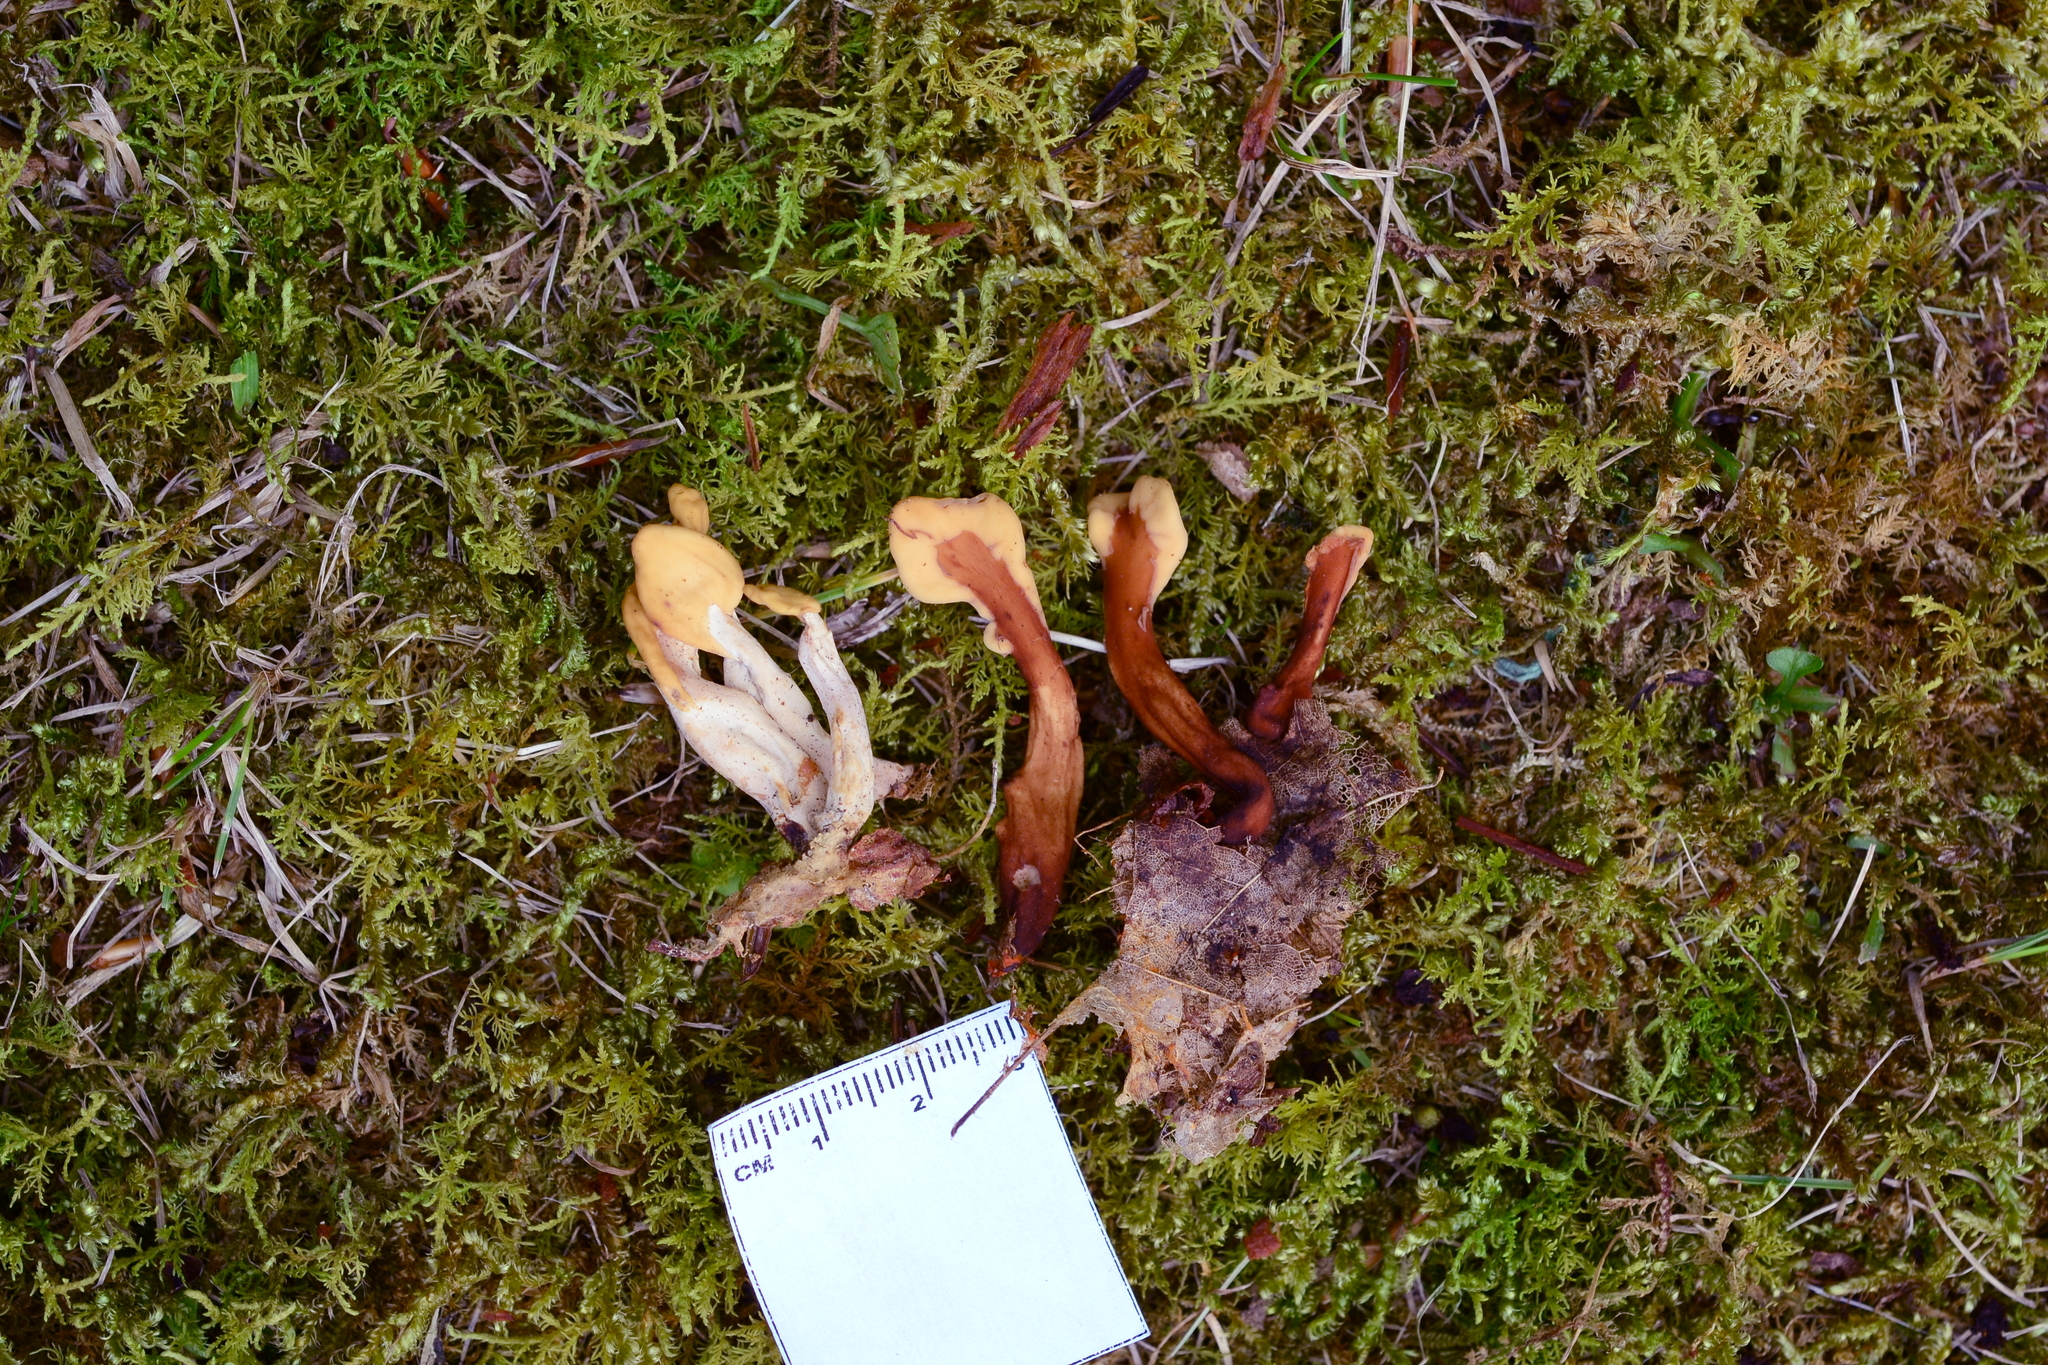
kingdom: Fungi
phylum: Ascomycota
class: Leotiomycetes
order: Rhytismatales
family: Cudoniaceae
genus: Spathularia
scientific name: Spathularia flavida
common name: Yellow fan
